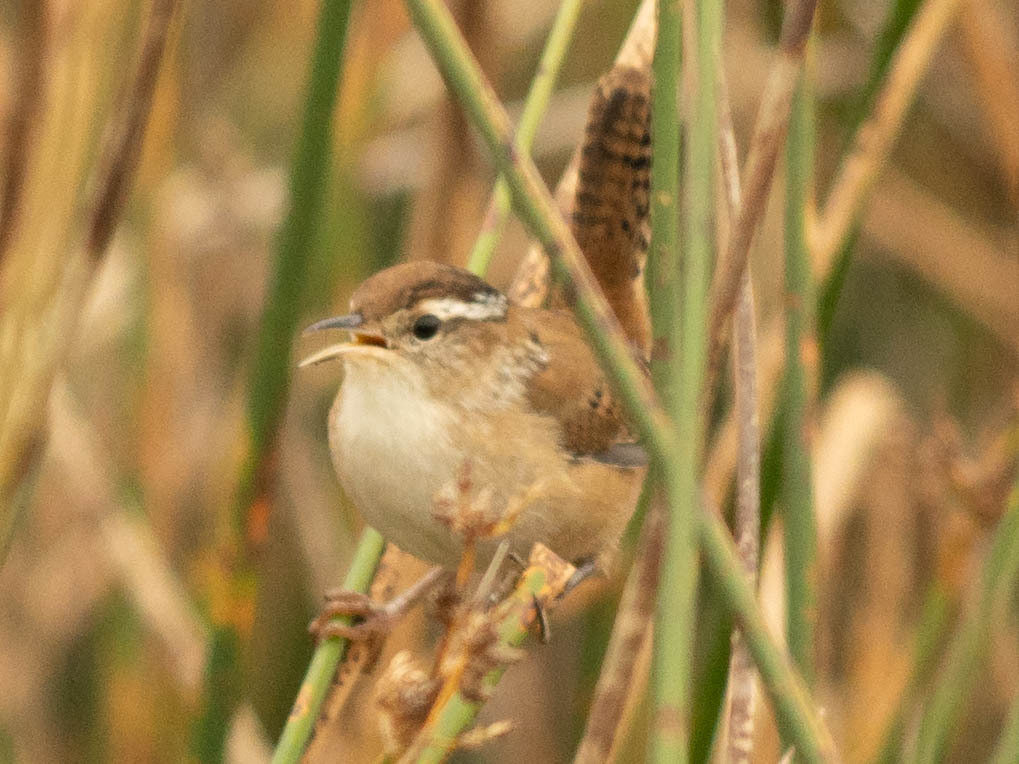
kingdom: Animalia
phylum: Chordata
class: Aves
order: Passeriformes
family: Troglodytidae
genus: Cistothorus
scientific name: Cistothorus palustris
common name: Marsh wren
